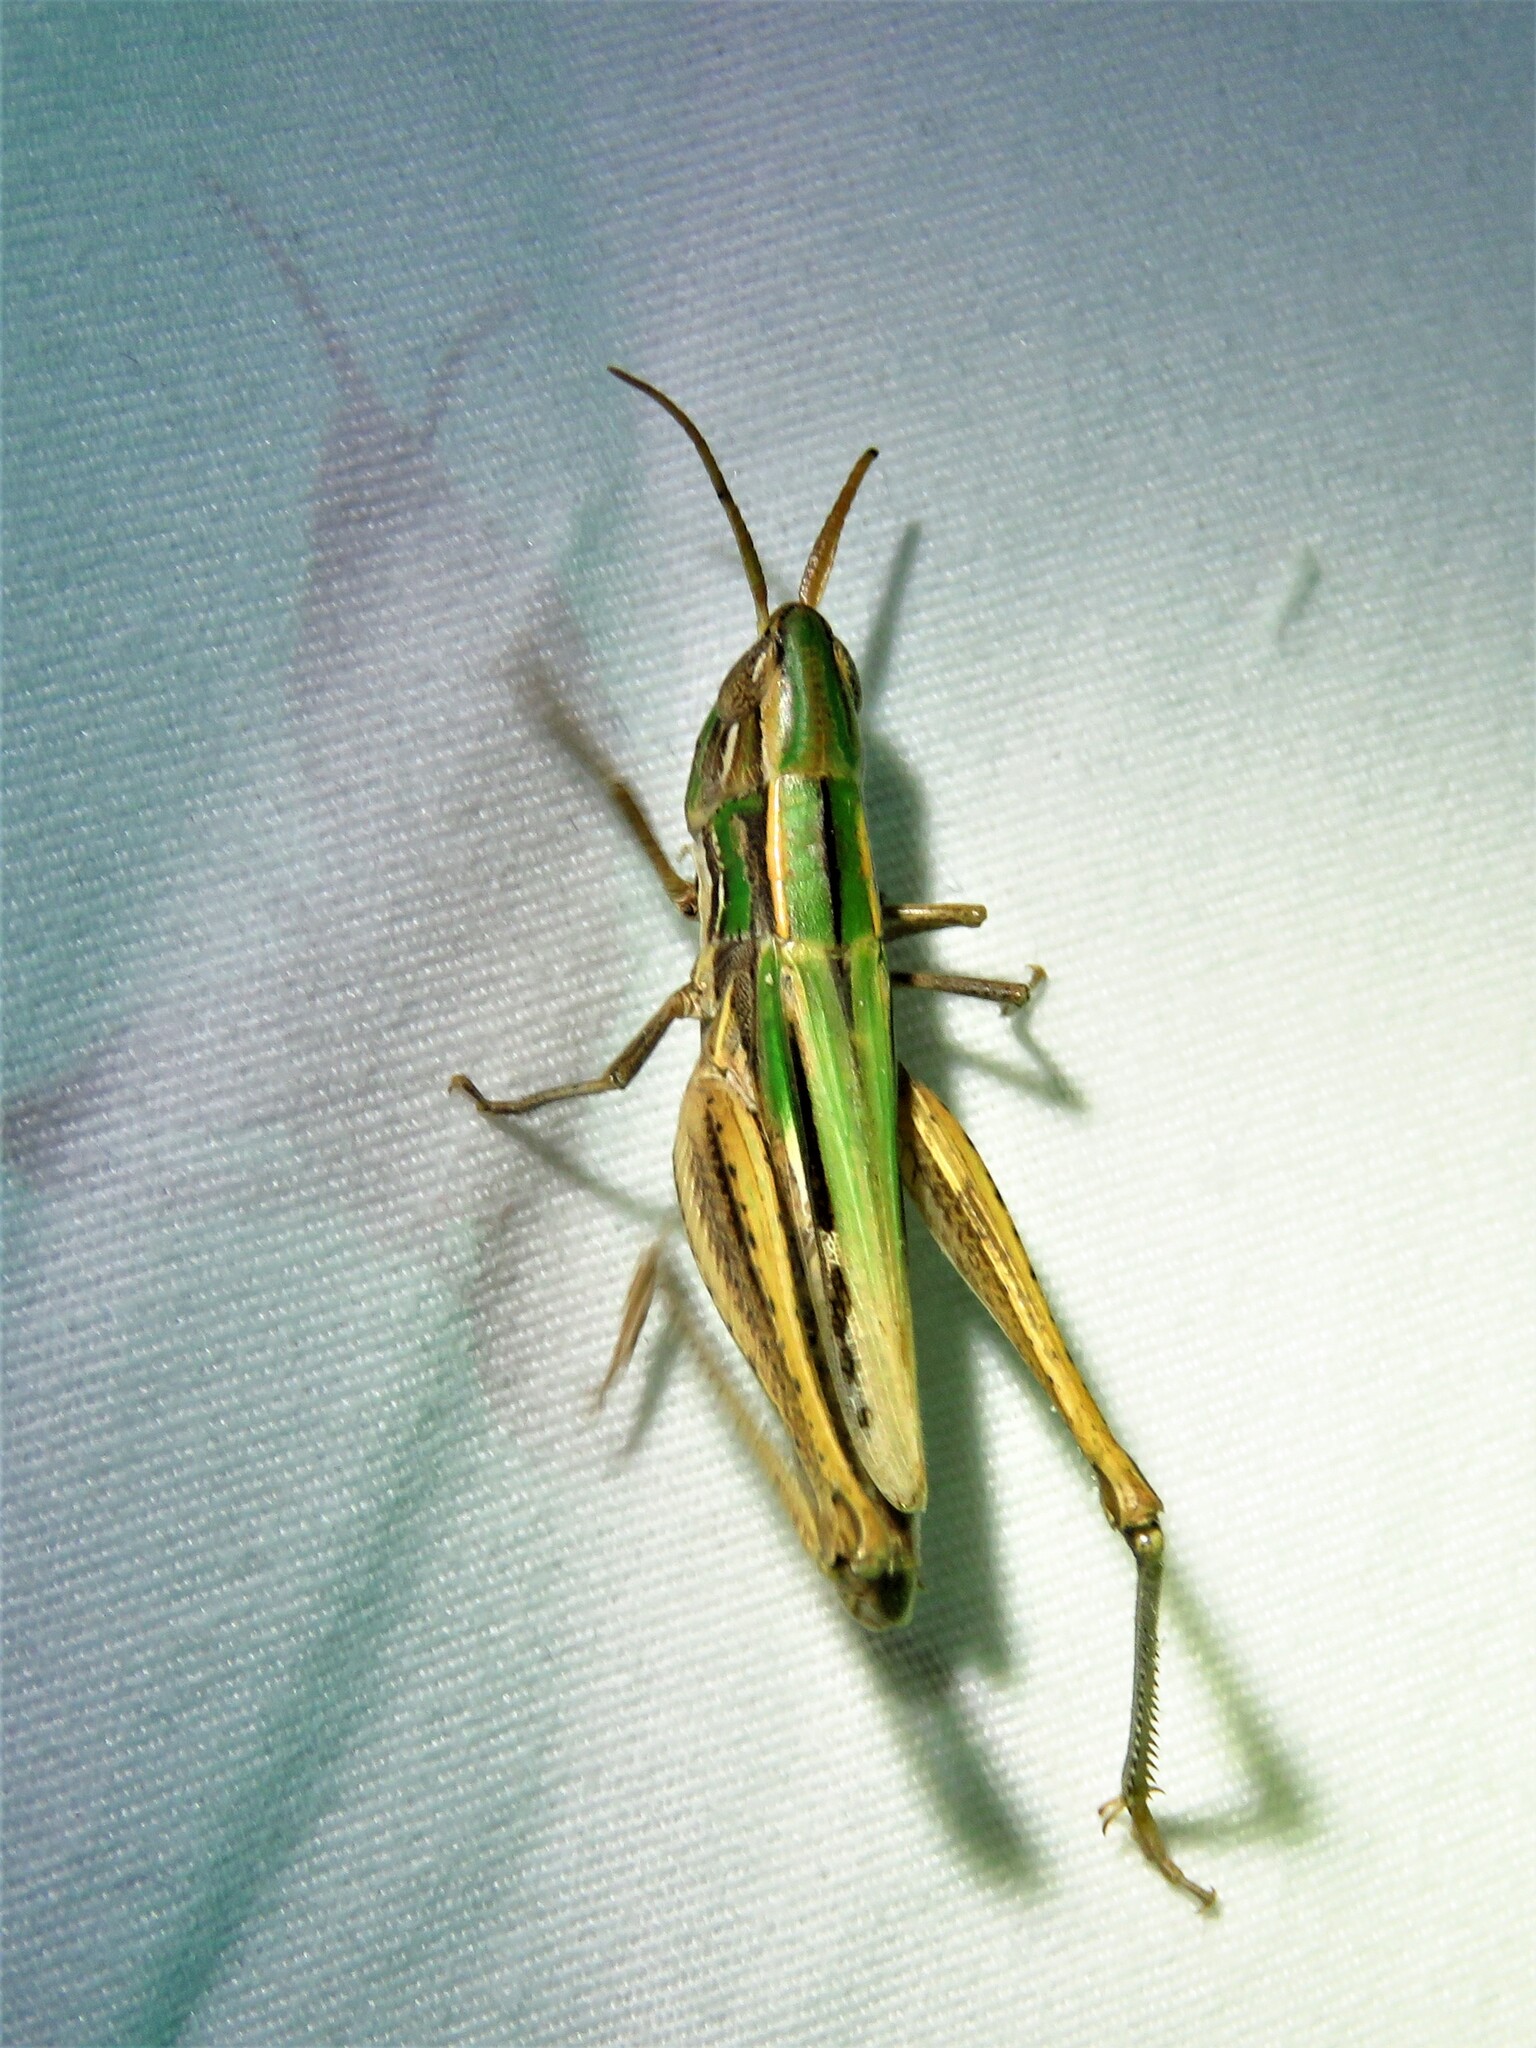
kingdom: Animalia
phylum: Arthropoda
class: Insecta
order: Orthoptera
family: Acrididae
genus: Opeia
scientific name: Opeia obscura
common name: Obscure grasshopper
